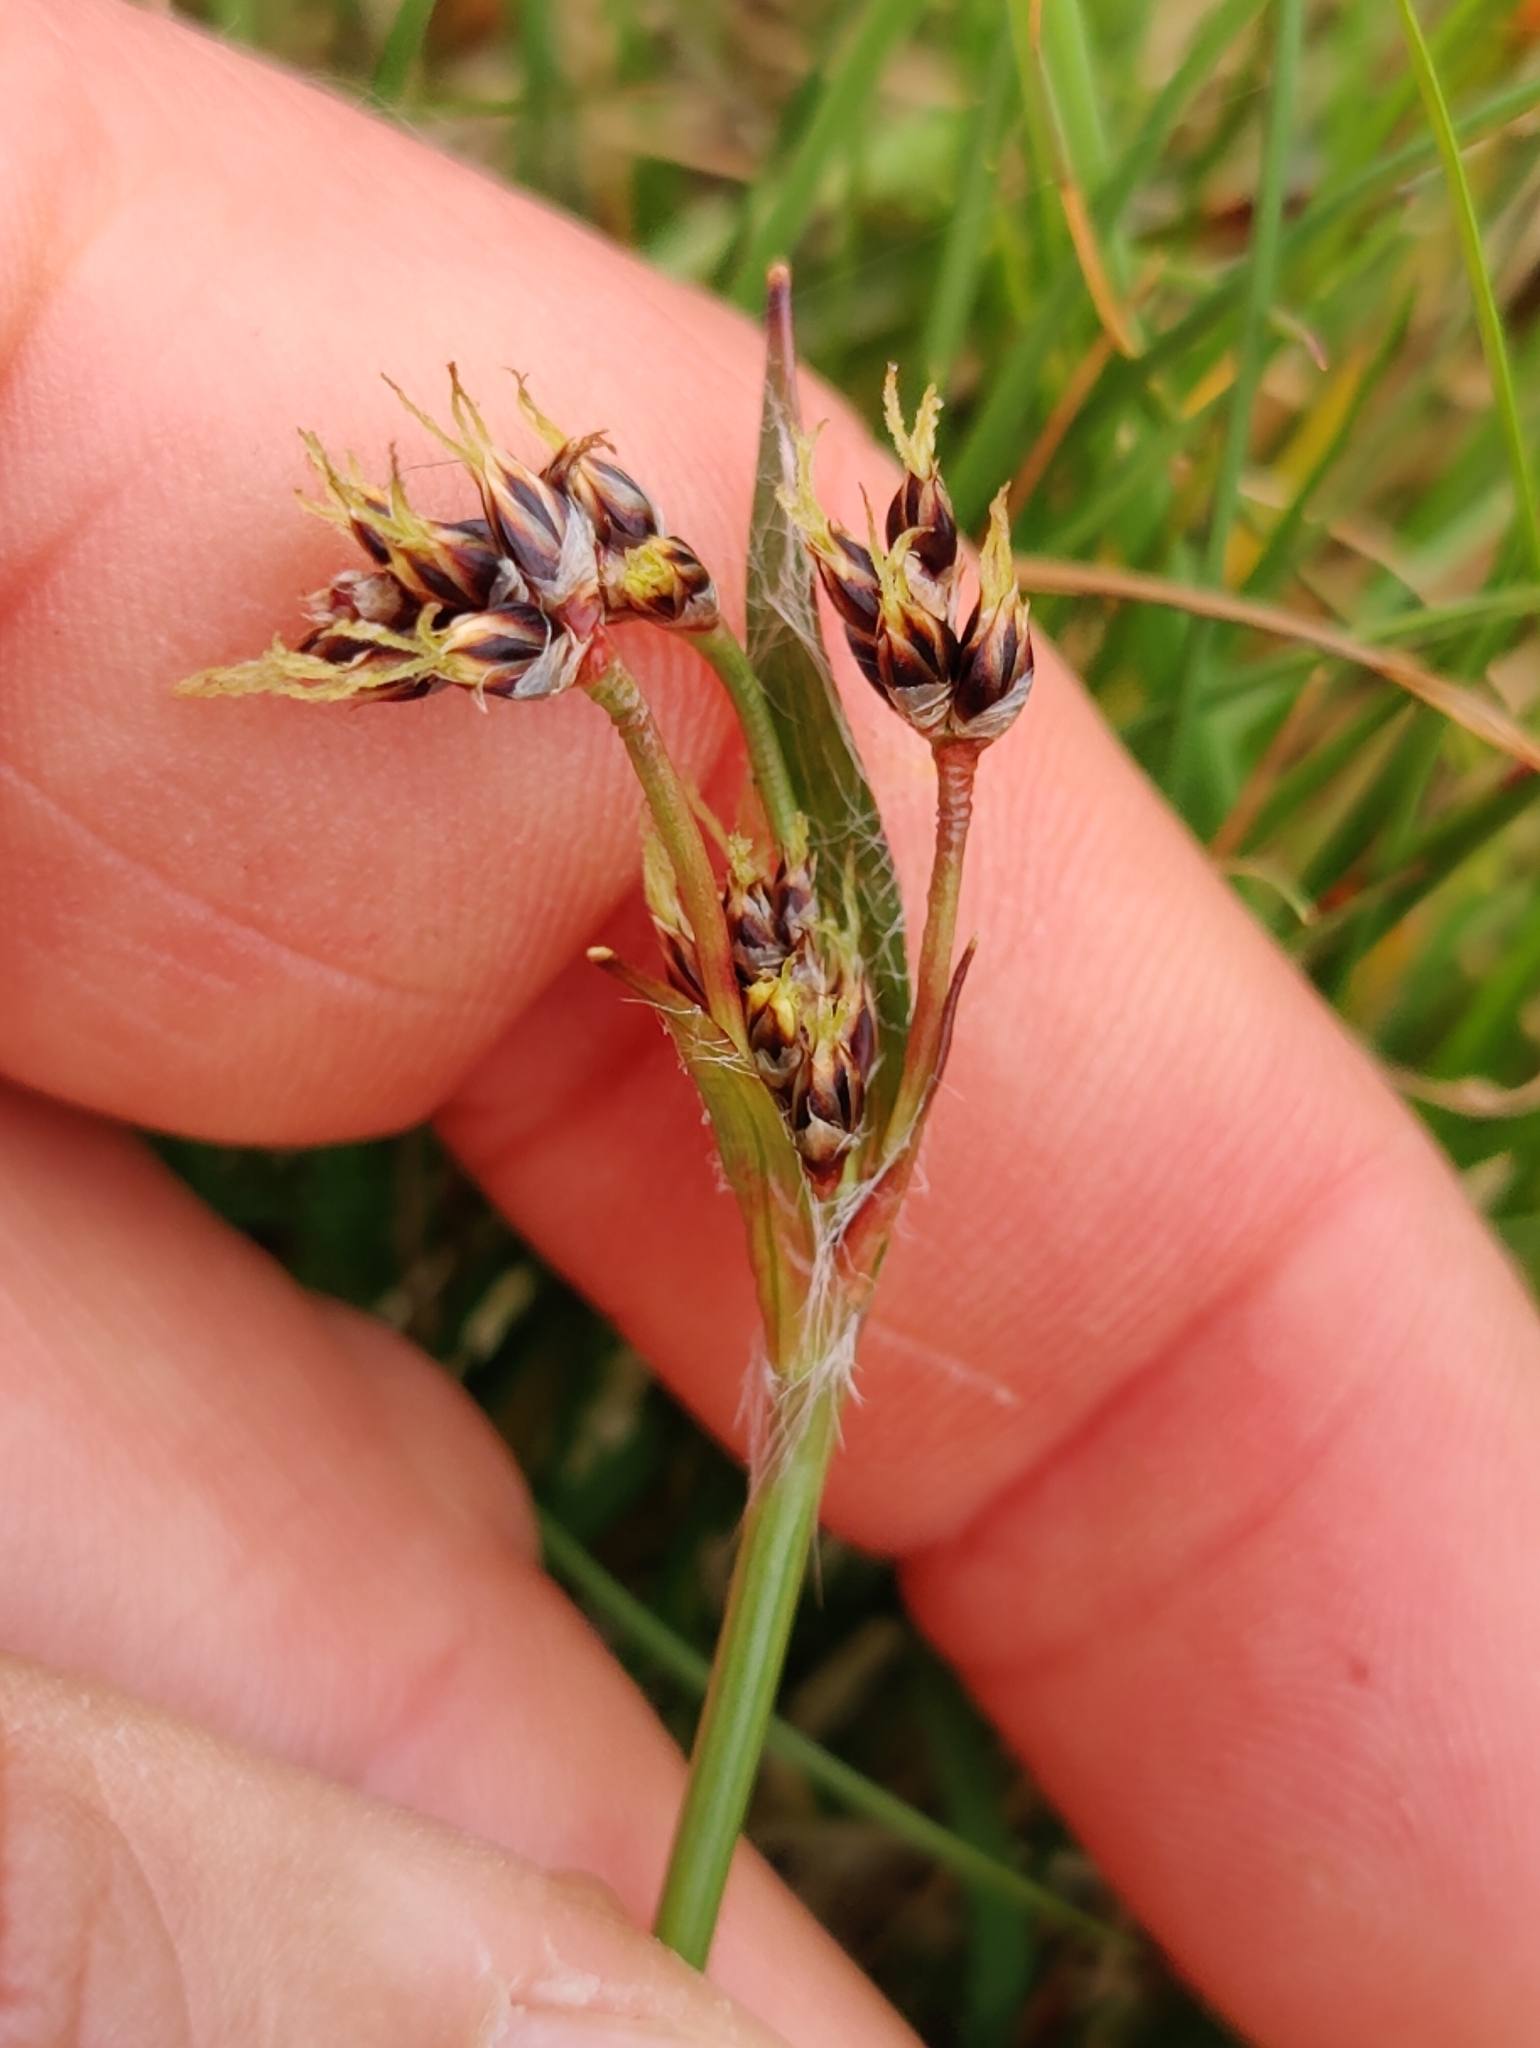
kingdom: Plantae
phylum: Tracheophyta
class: Liliopsida
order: Poales
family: Juncaceae
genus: Luzula
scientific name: Luzula campestris
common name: Field wood-rush
